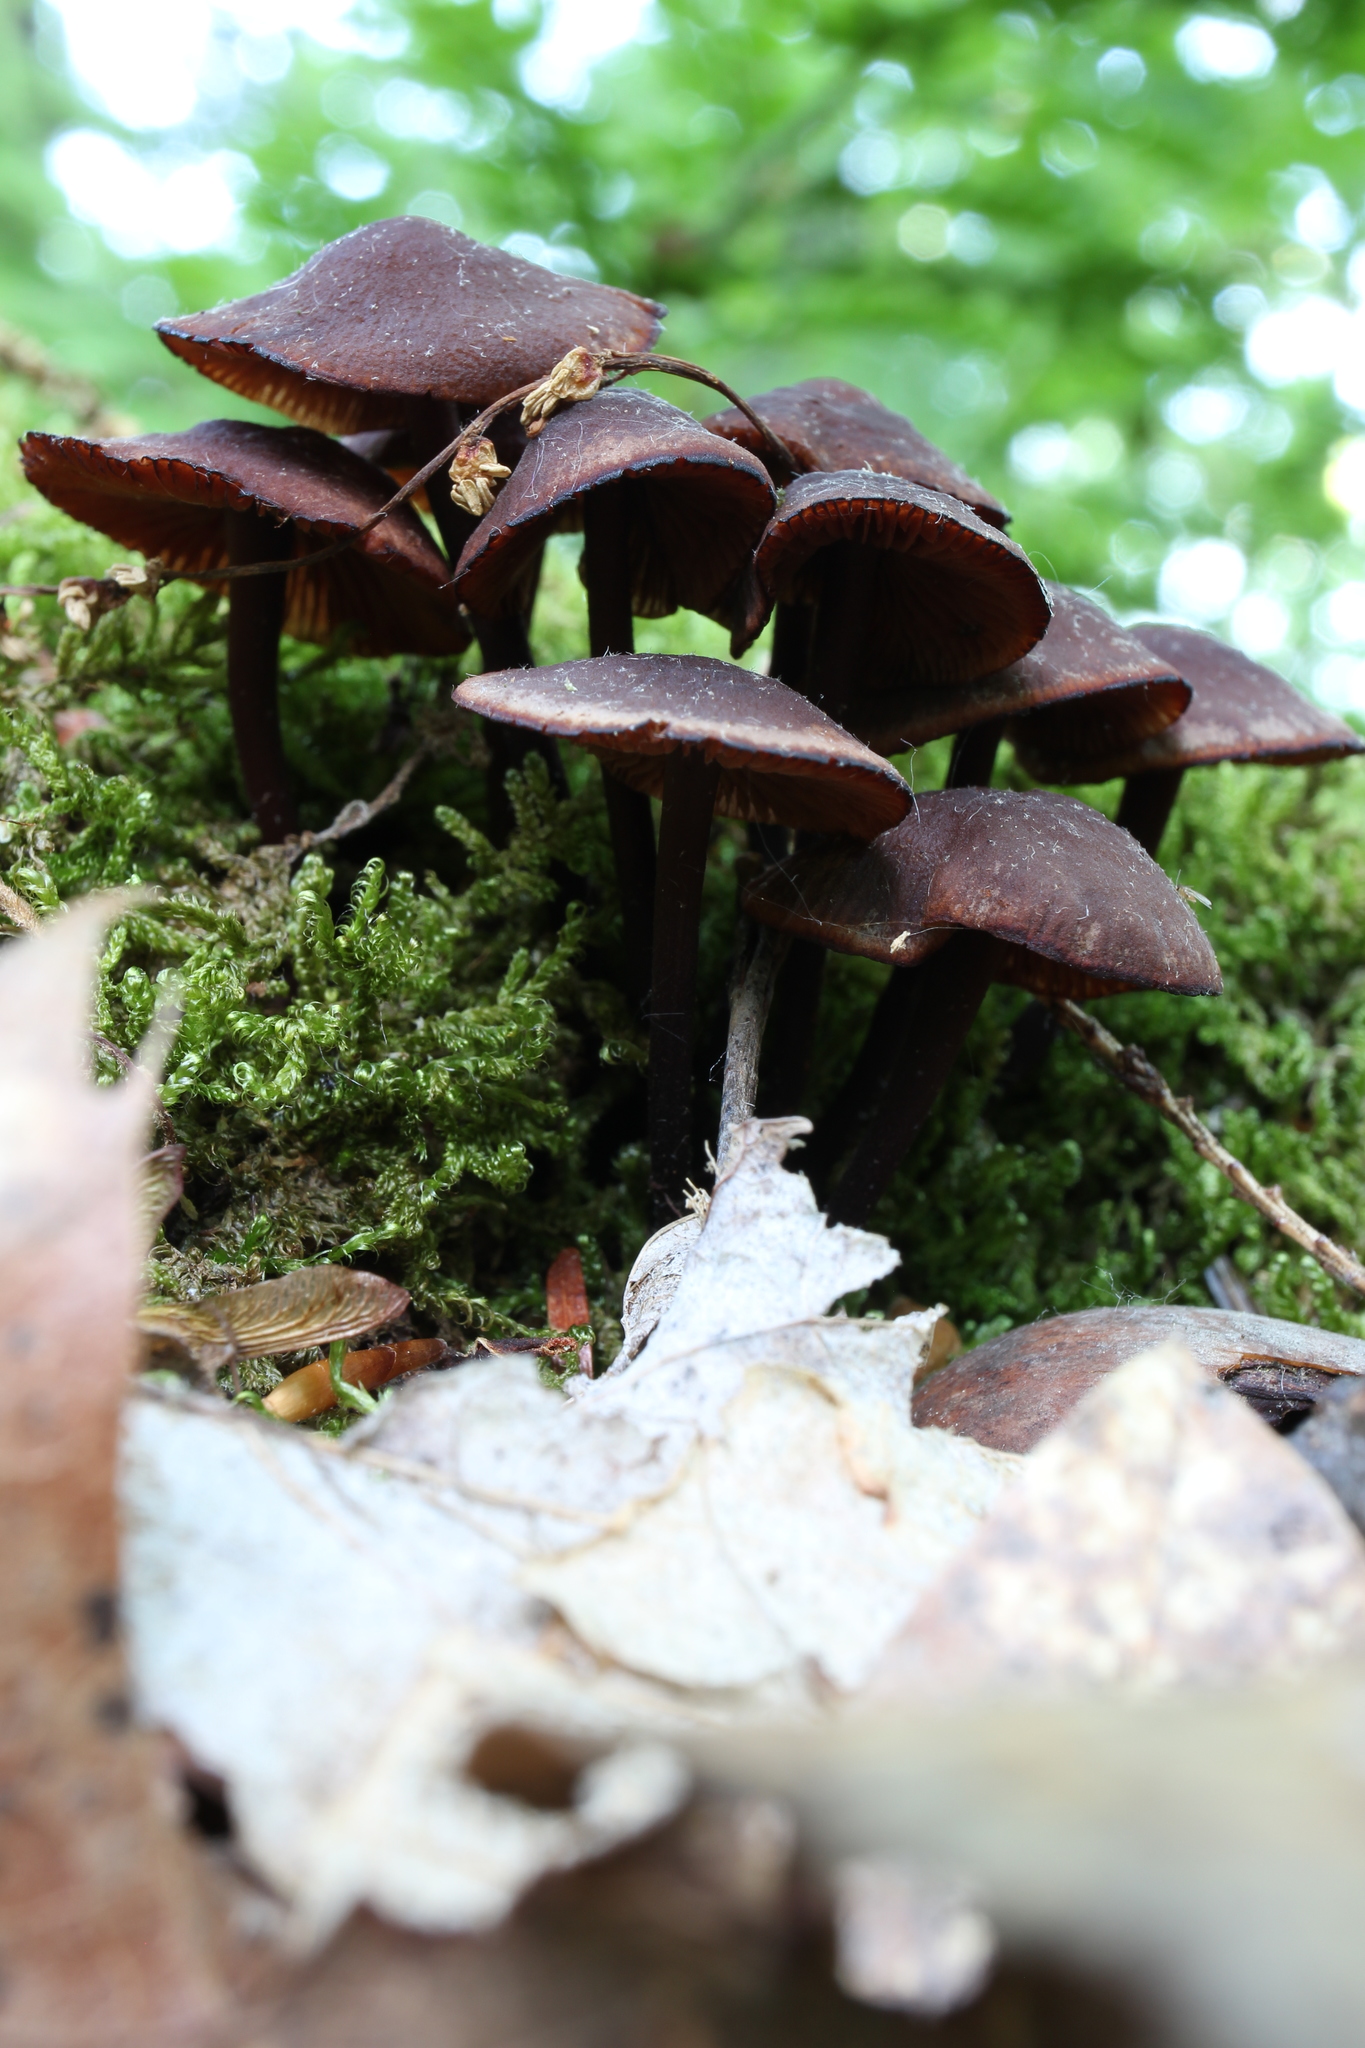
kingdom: Fungi
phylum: Basidiomycota
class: Agaricomycetes
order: Agaricales
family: Omphalotaceae
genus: Gymnopus
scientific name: Gymnopus alkalivirens
